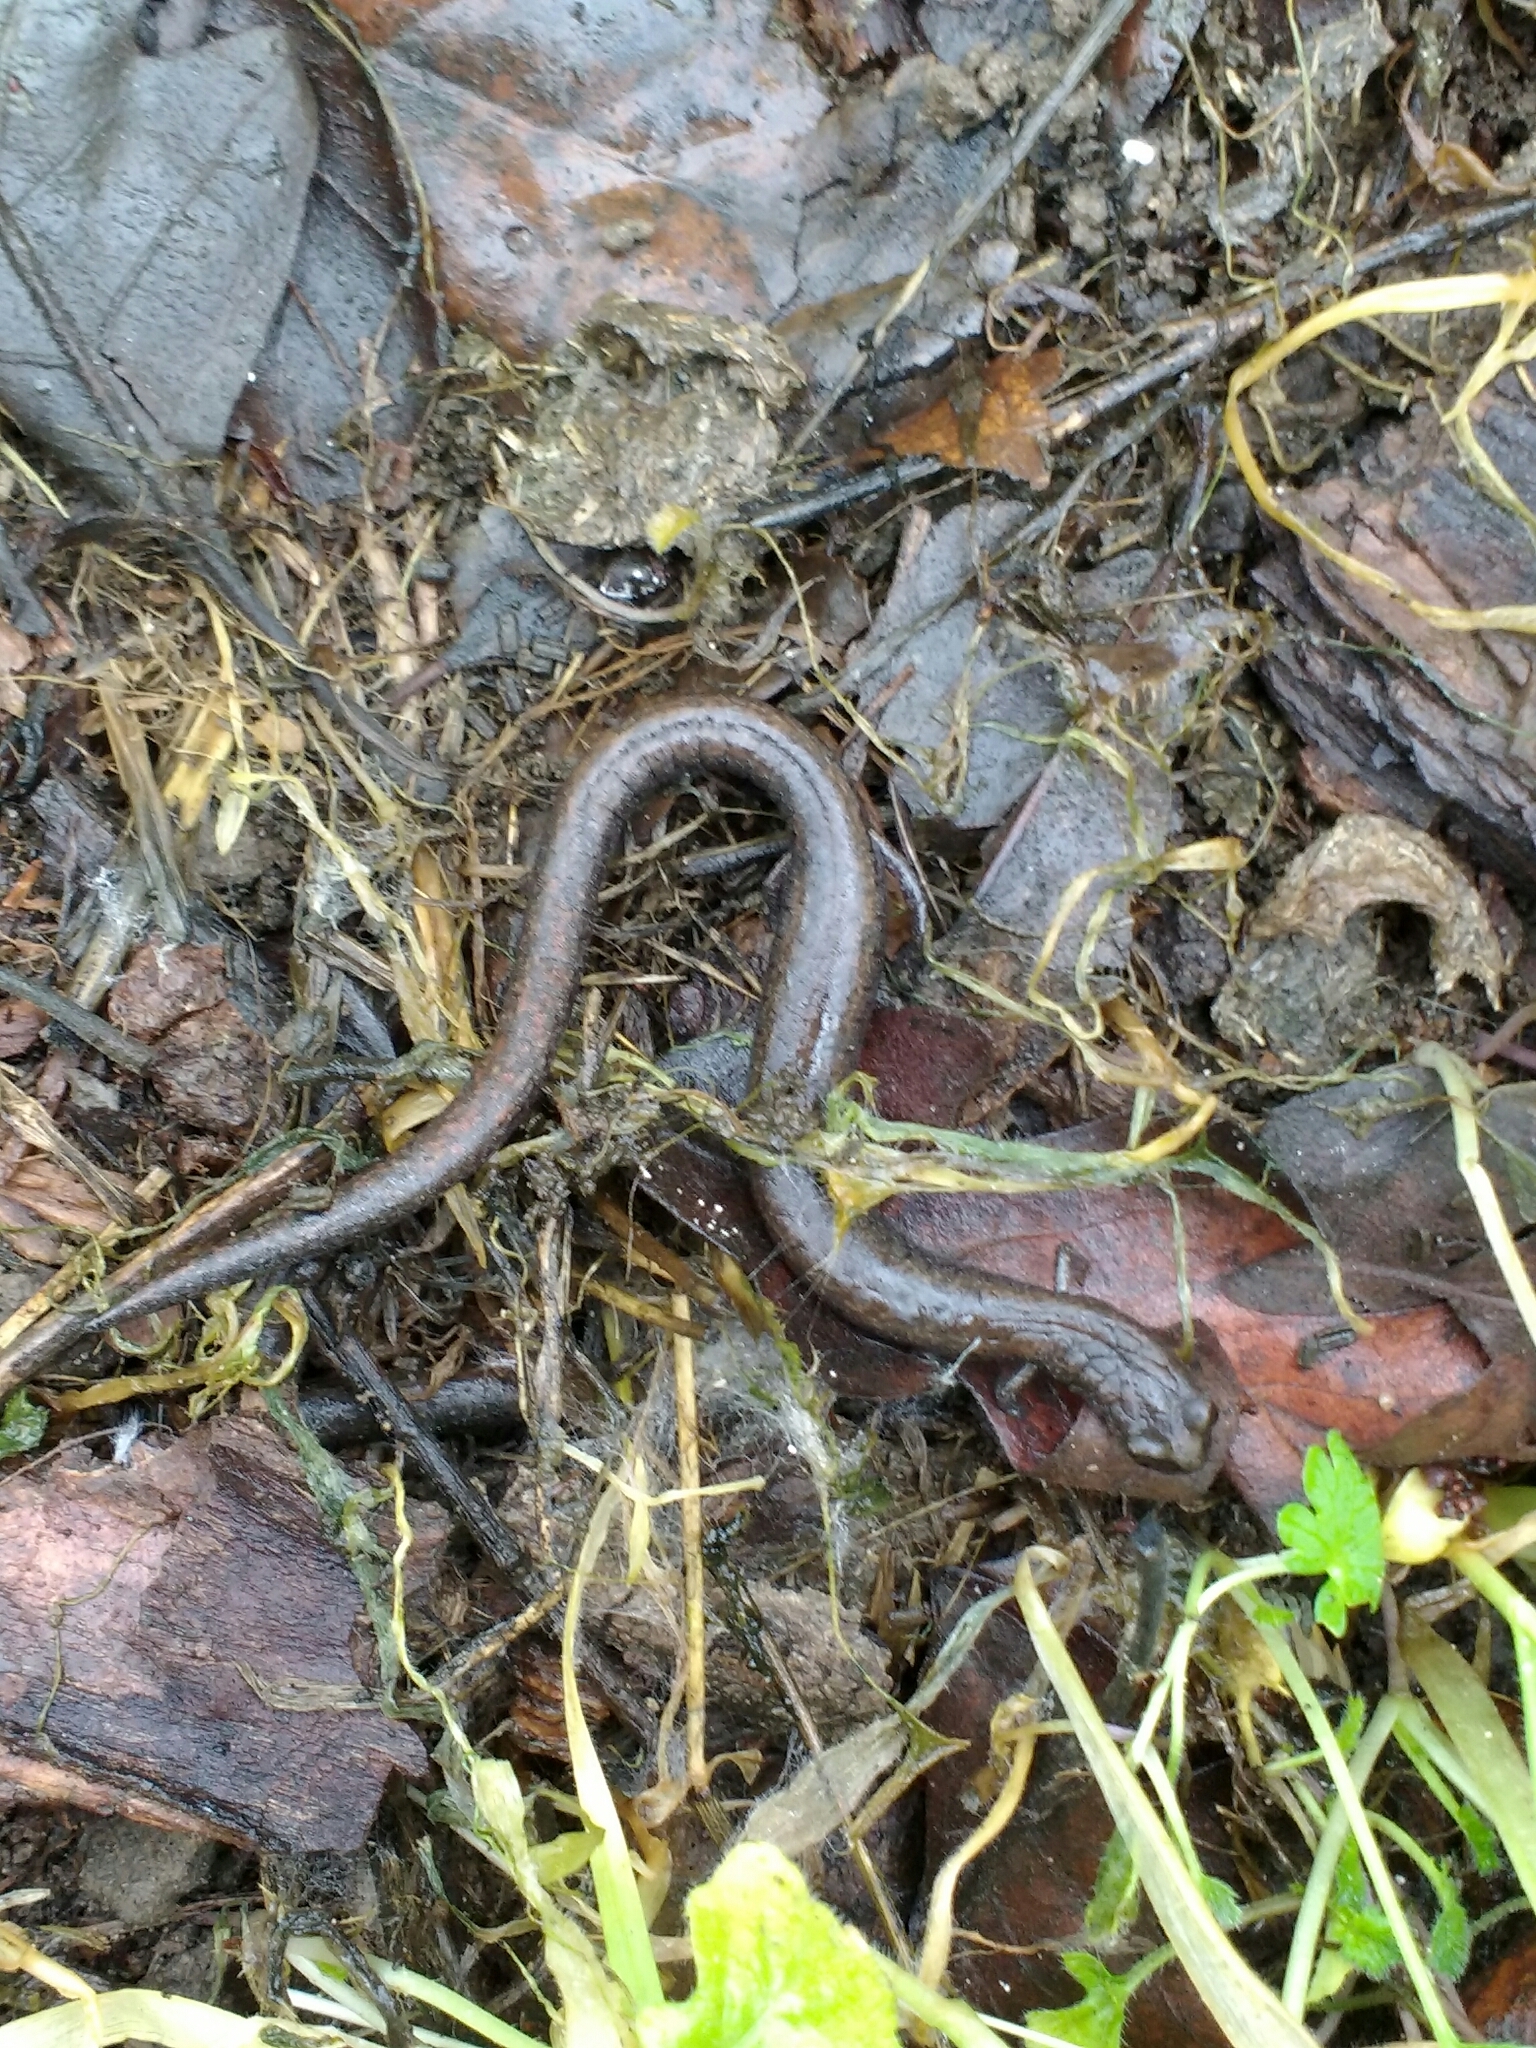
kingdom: Animalia
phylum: Chordata
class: Amphibia
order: Caudata
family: Plethodontidae
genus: Batrachoseps
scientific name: Batrachoseps attenuatus
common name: California slender salamander
